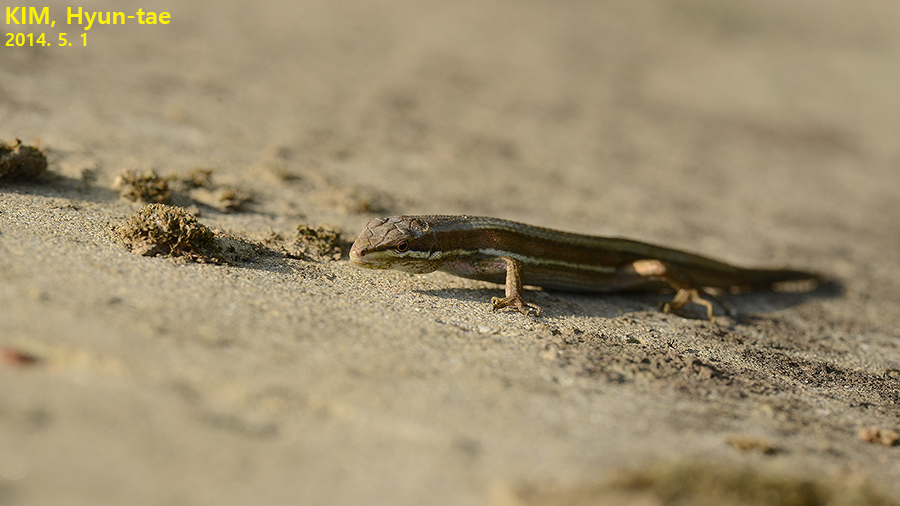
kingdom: Animalia
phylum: Chordata
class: Squamata
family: Lacertidae
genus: Takydromus
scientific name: Takydromus wolteri
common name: Mountain grass lizard
